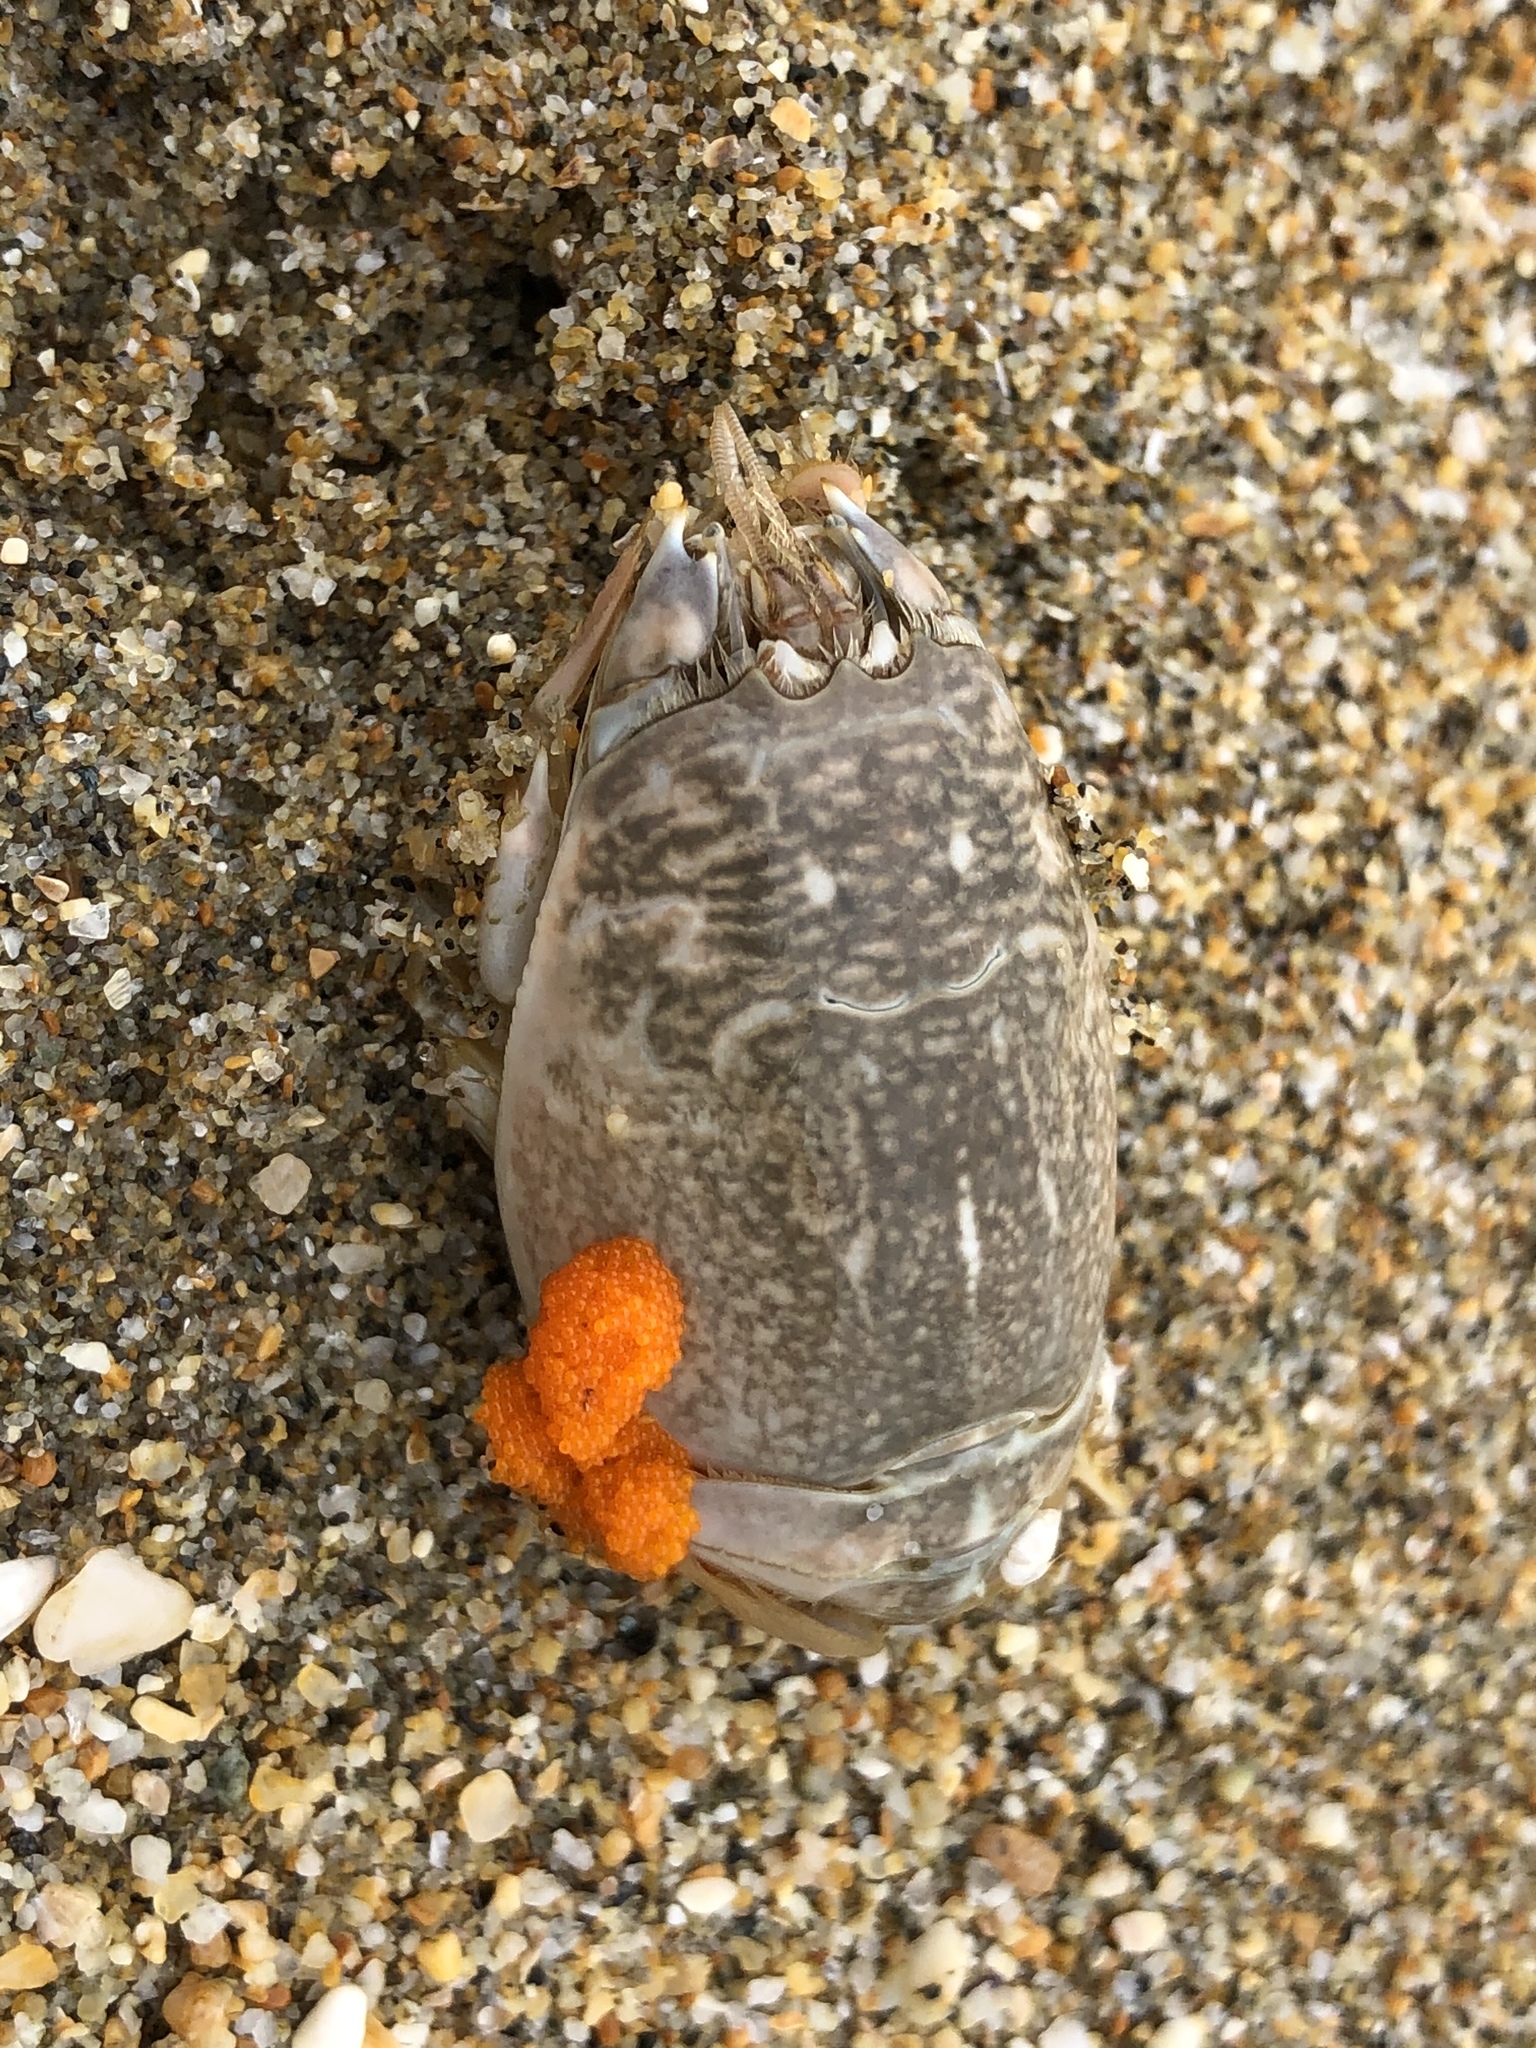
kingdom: Animalia
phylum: Arthropoda
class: Malacostraca
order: Decapoda
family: Hippidae
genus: Emerita
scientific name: Emerita analoga
